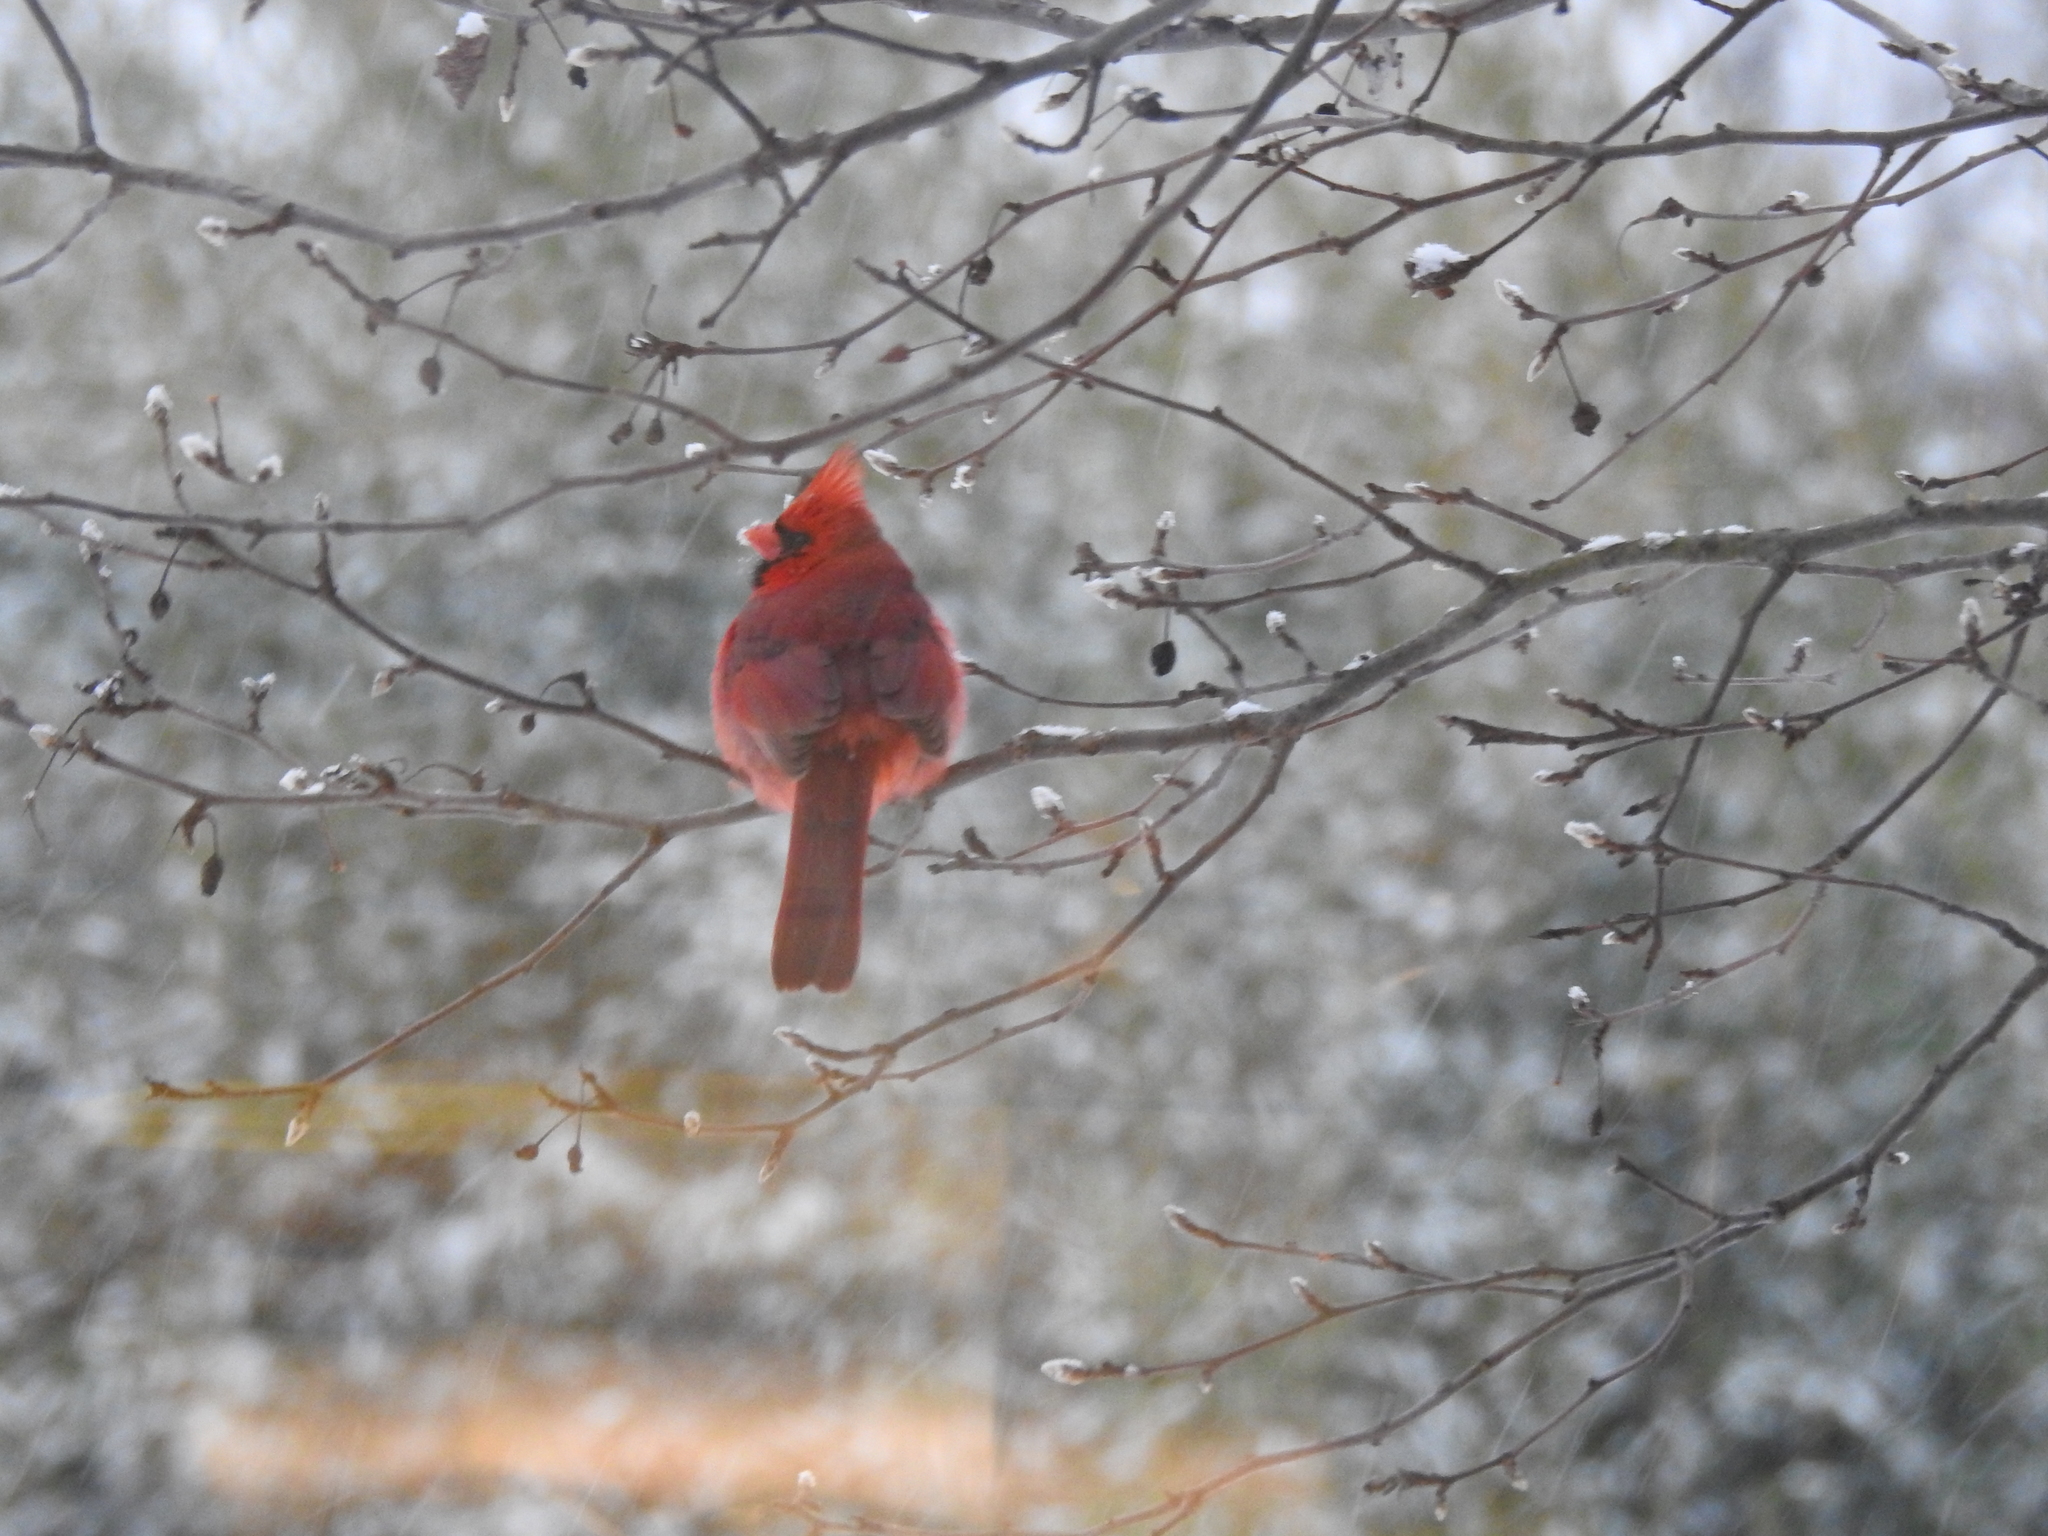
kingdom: Animalia
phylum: Chordata
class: Aves
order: Passeriformes
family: Cardinalidae
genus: Cardinalis
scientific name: Cardinalis cardinalis
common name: Northern cardinal
